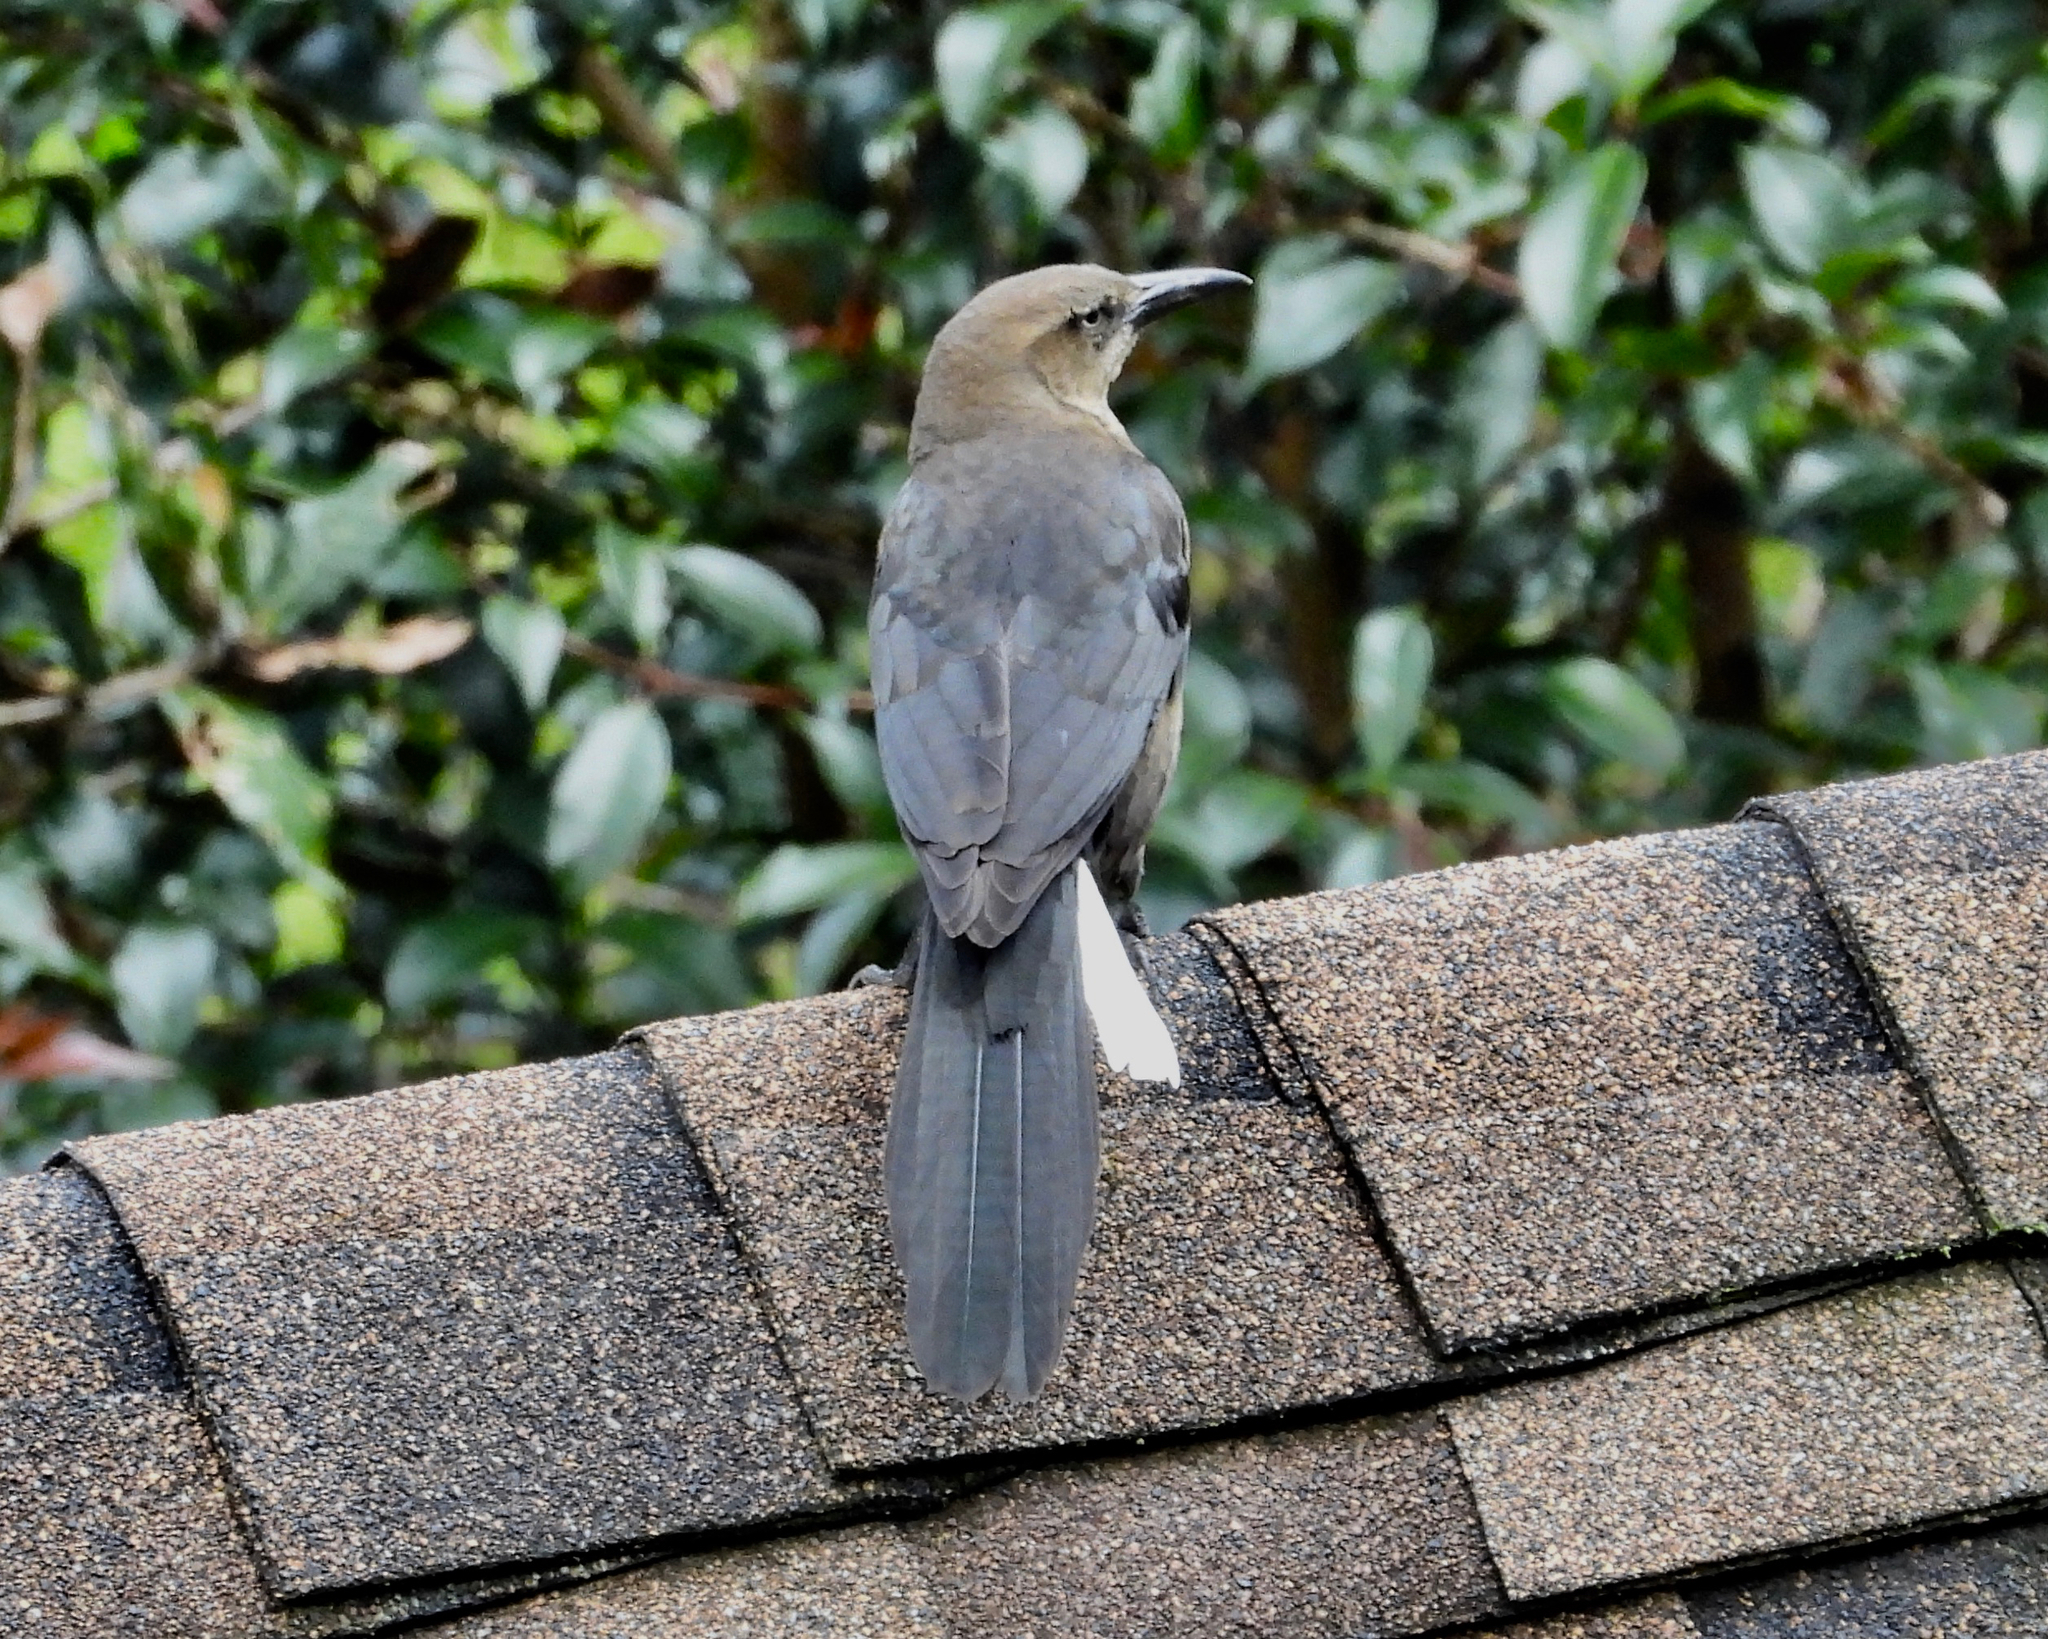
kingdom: Animalia
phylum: Chordata
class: Aves
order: Passeriformes
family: Icteridae
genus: Quiscalus
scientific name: Quiscalus mexicanus
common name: Great-tailed grackle
